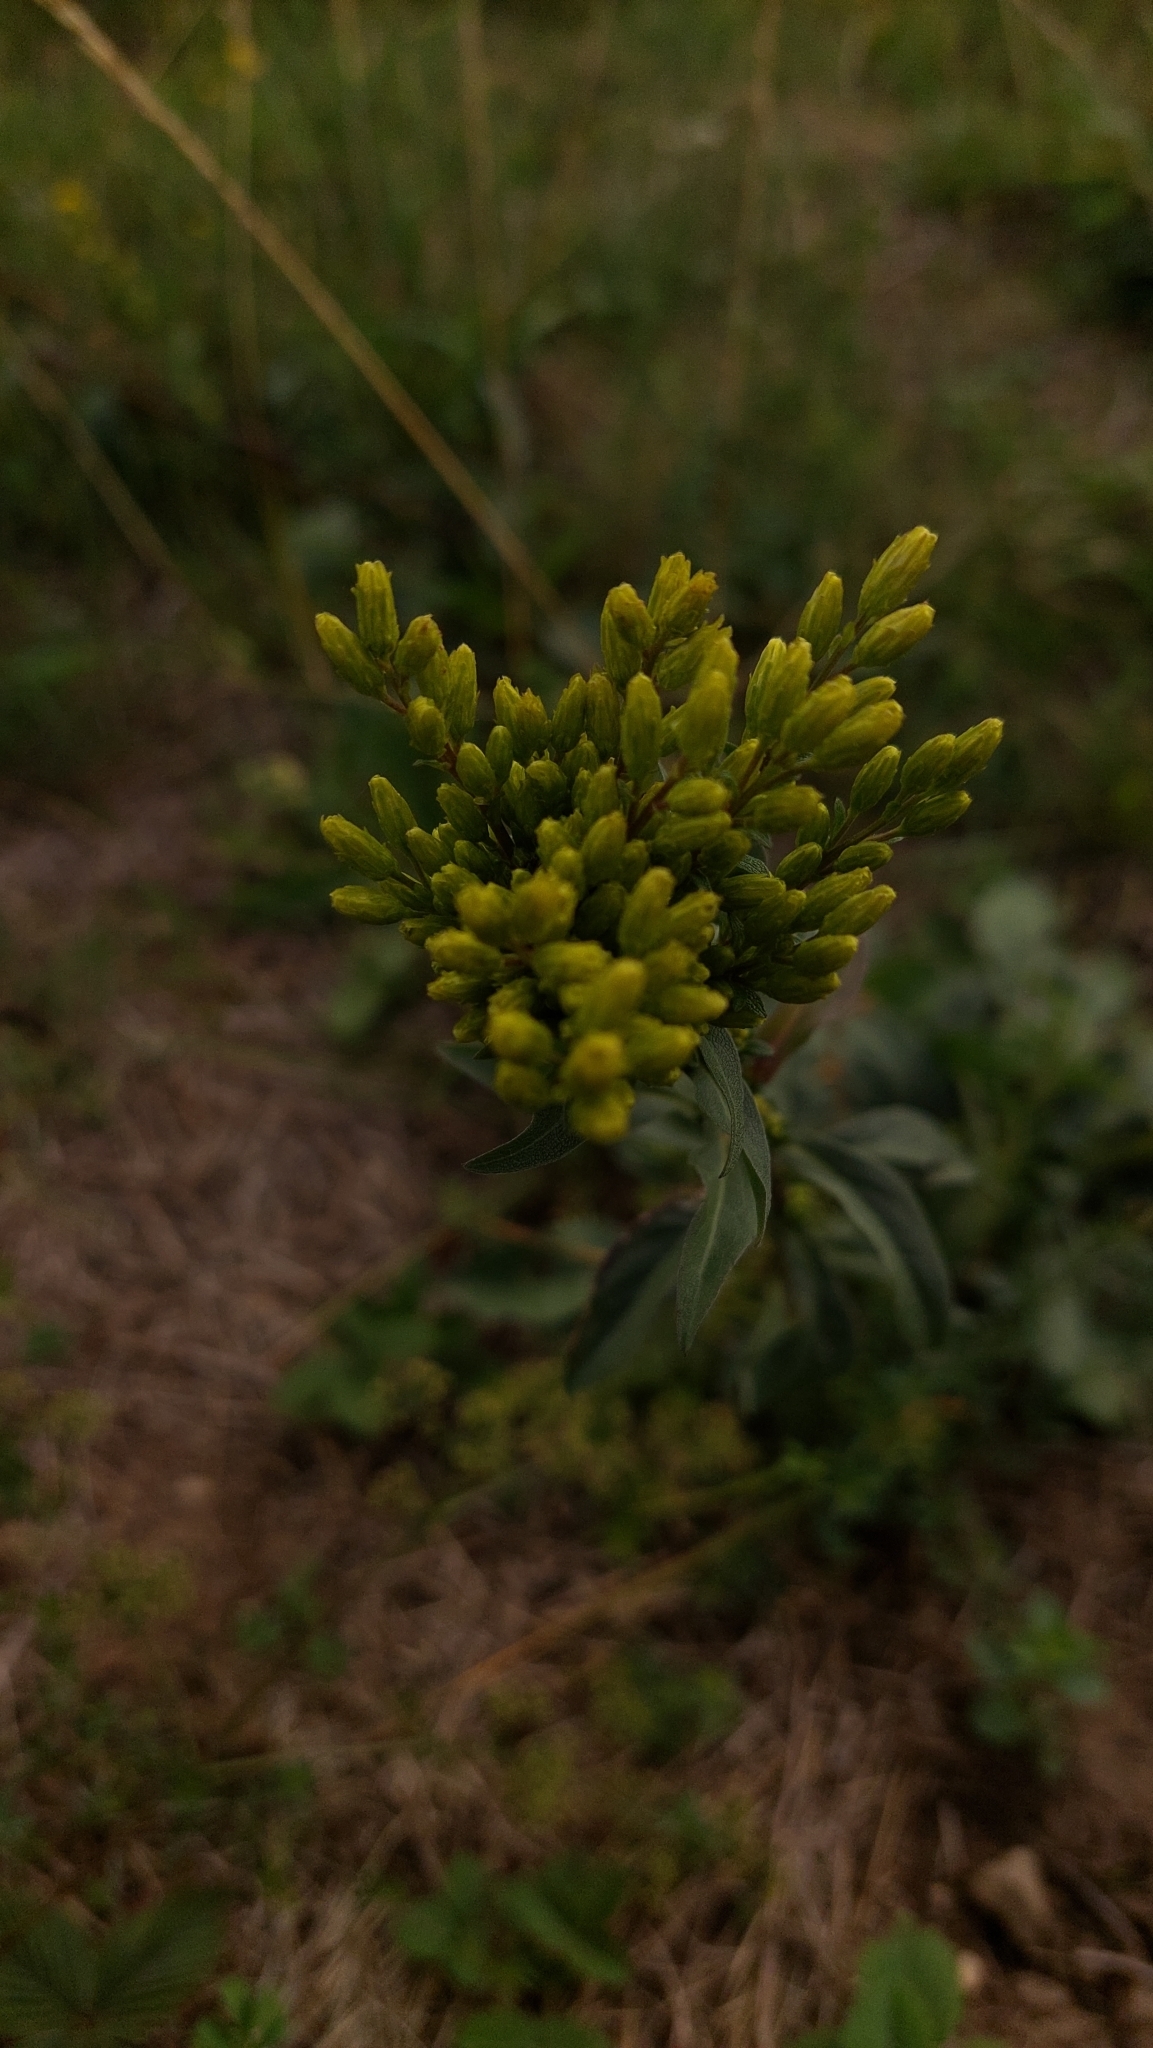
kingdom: Plantae
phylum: Tracheophyta
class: Magnoliopsida
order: Asterales
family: Asteraceae
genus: Solidago
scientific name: Solidago virgaurea
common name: Goldenrod
